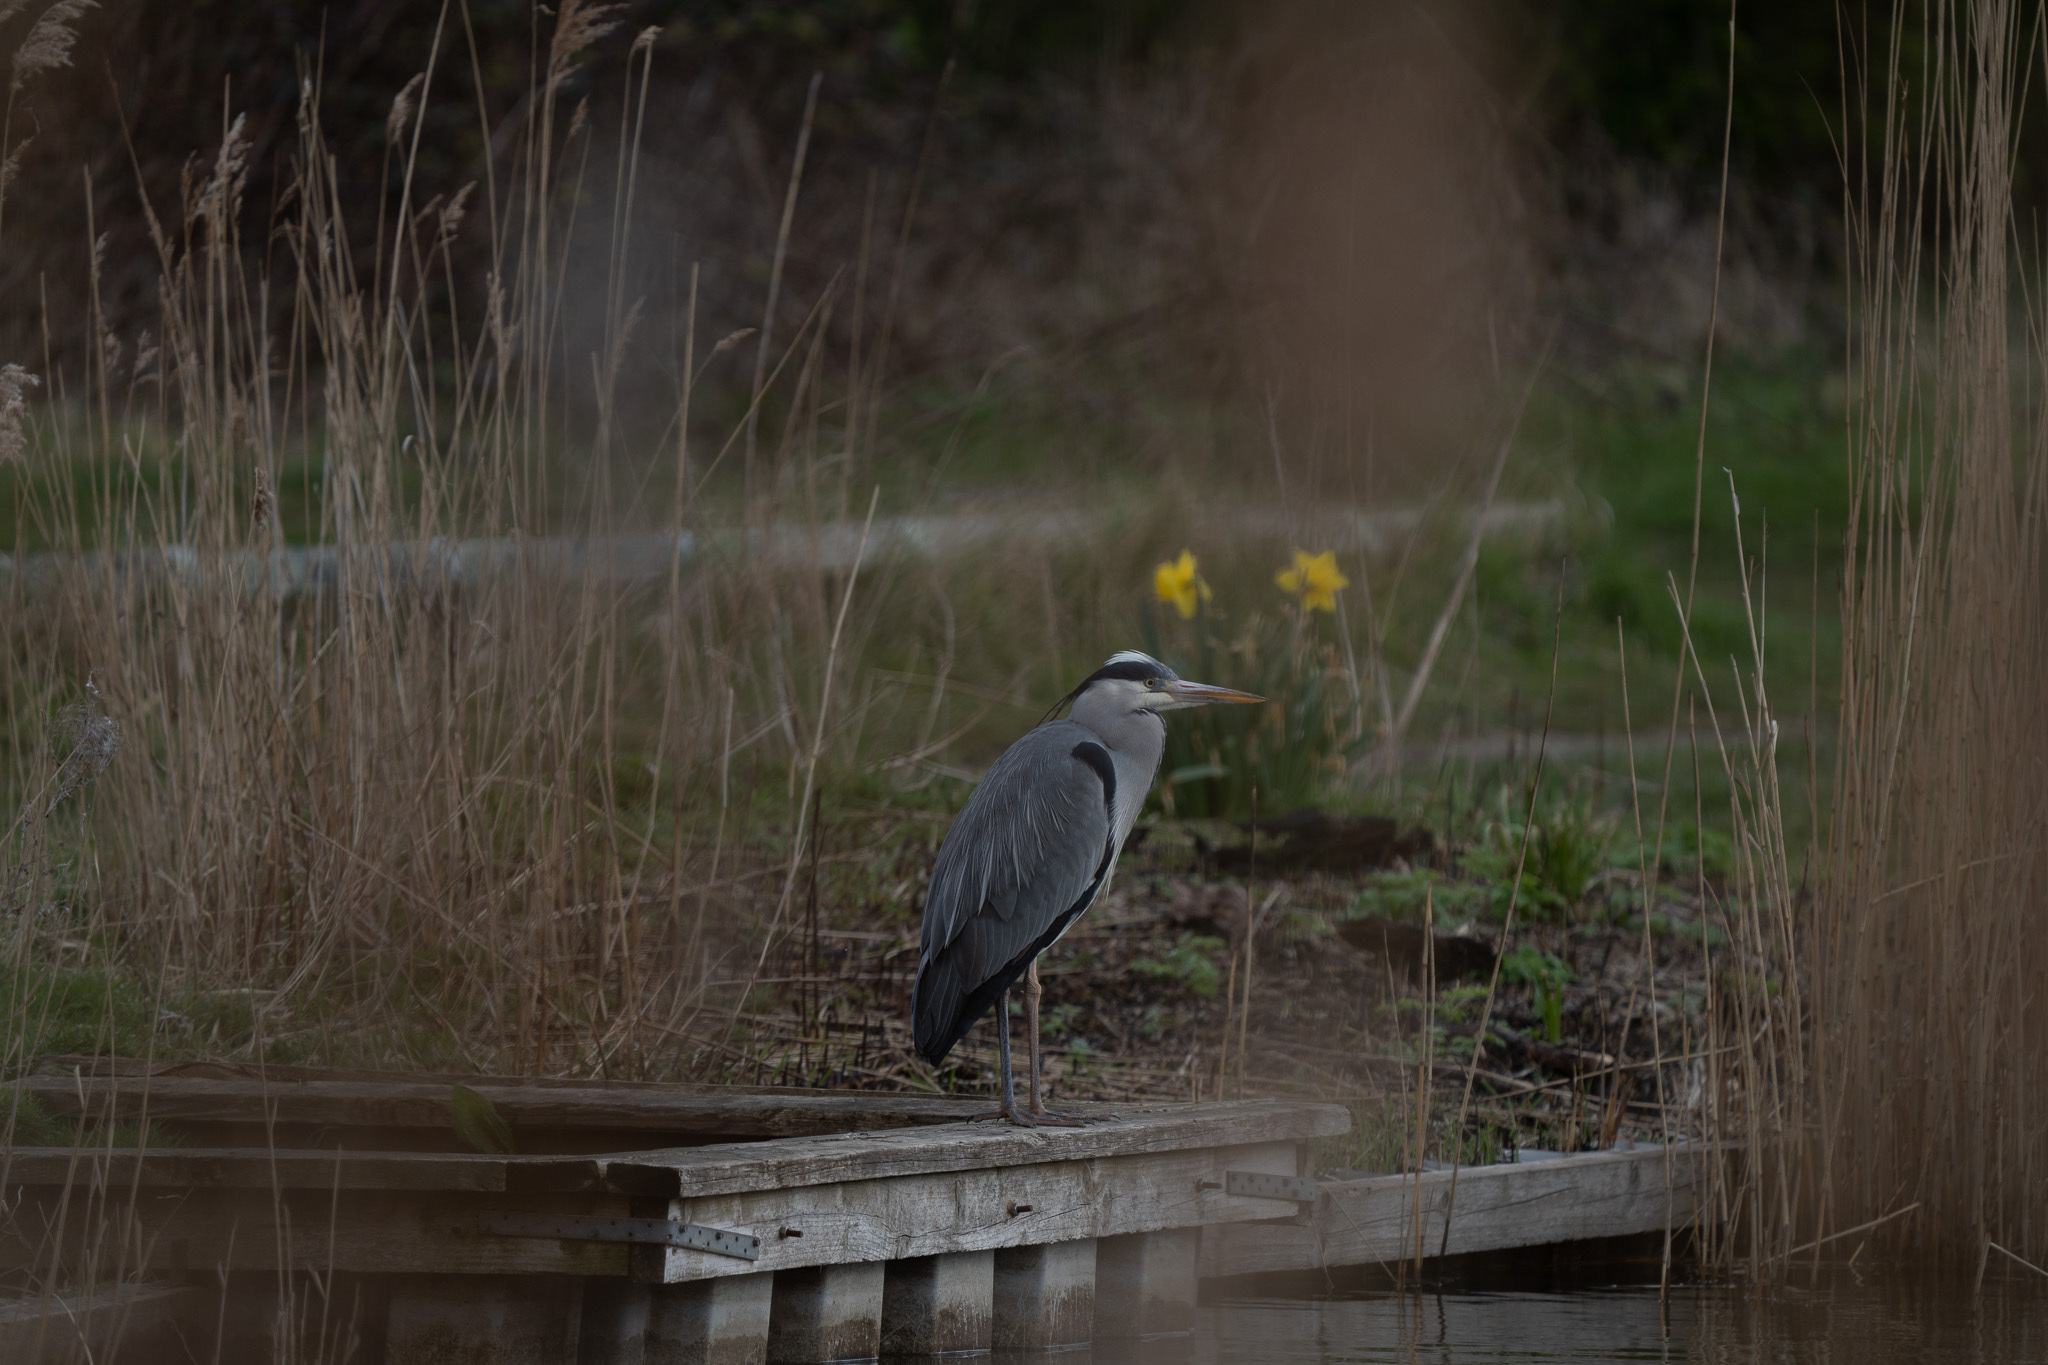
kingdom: Animalia
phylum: Chordata
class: Aves
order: Pelecaniformes
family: Ardeidae
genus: Ardea
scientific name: Ardea cinerea
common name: Grey heron
